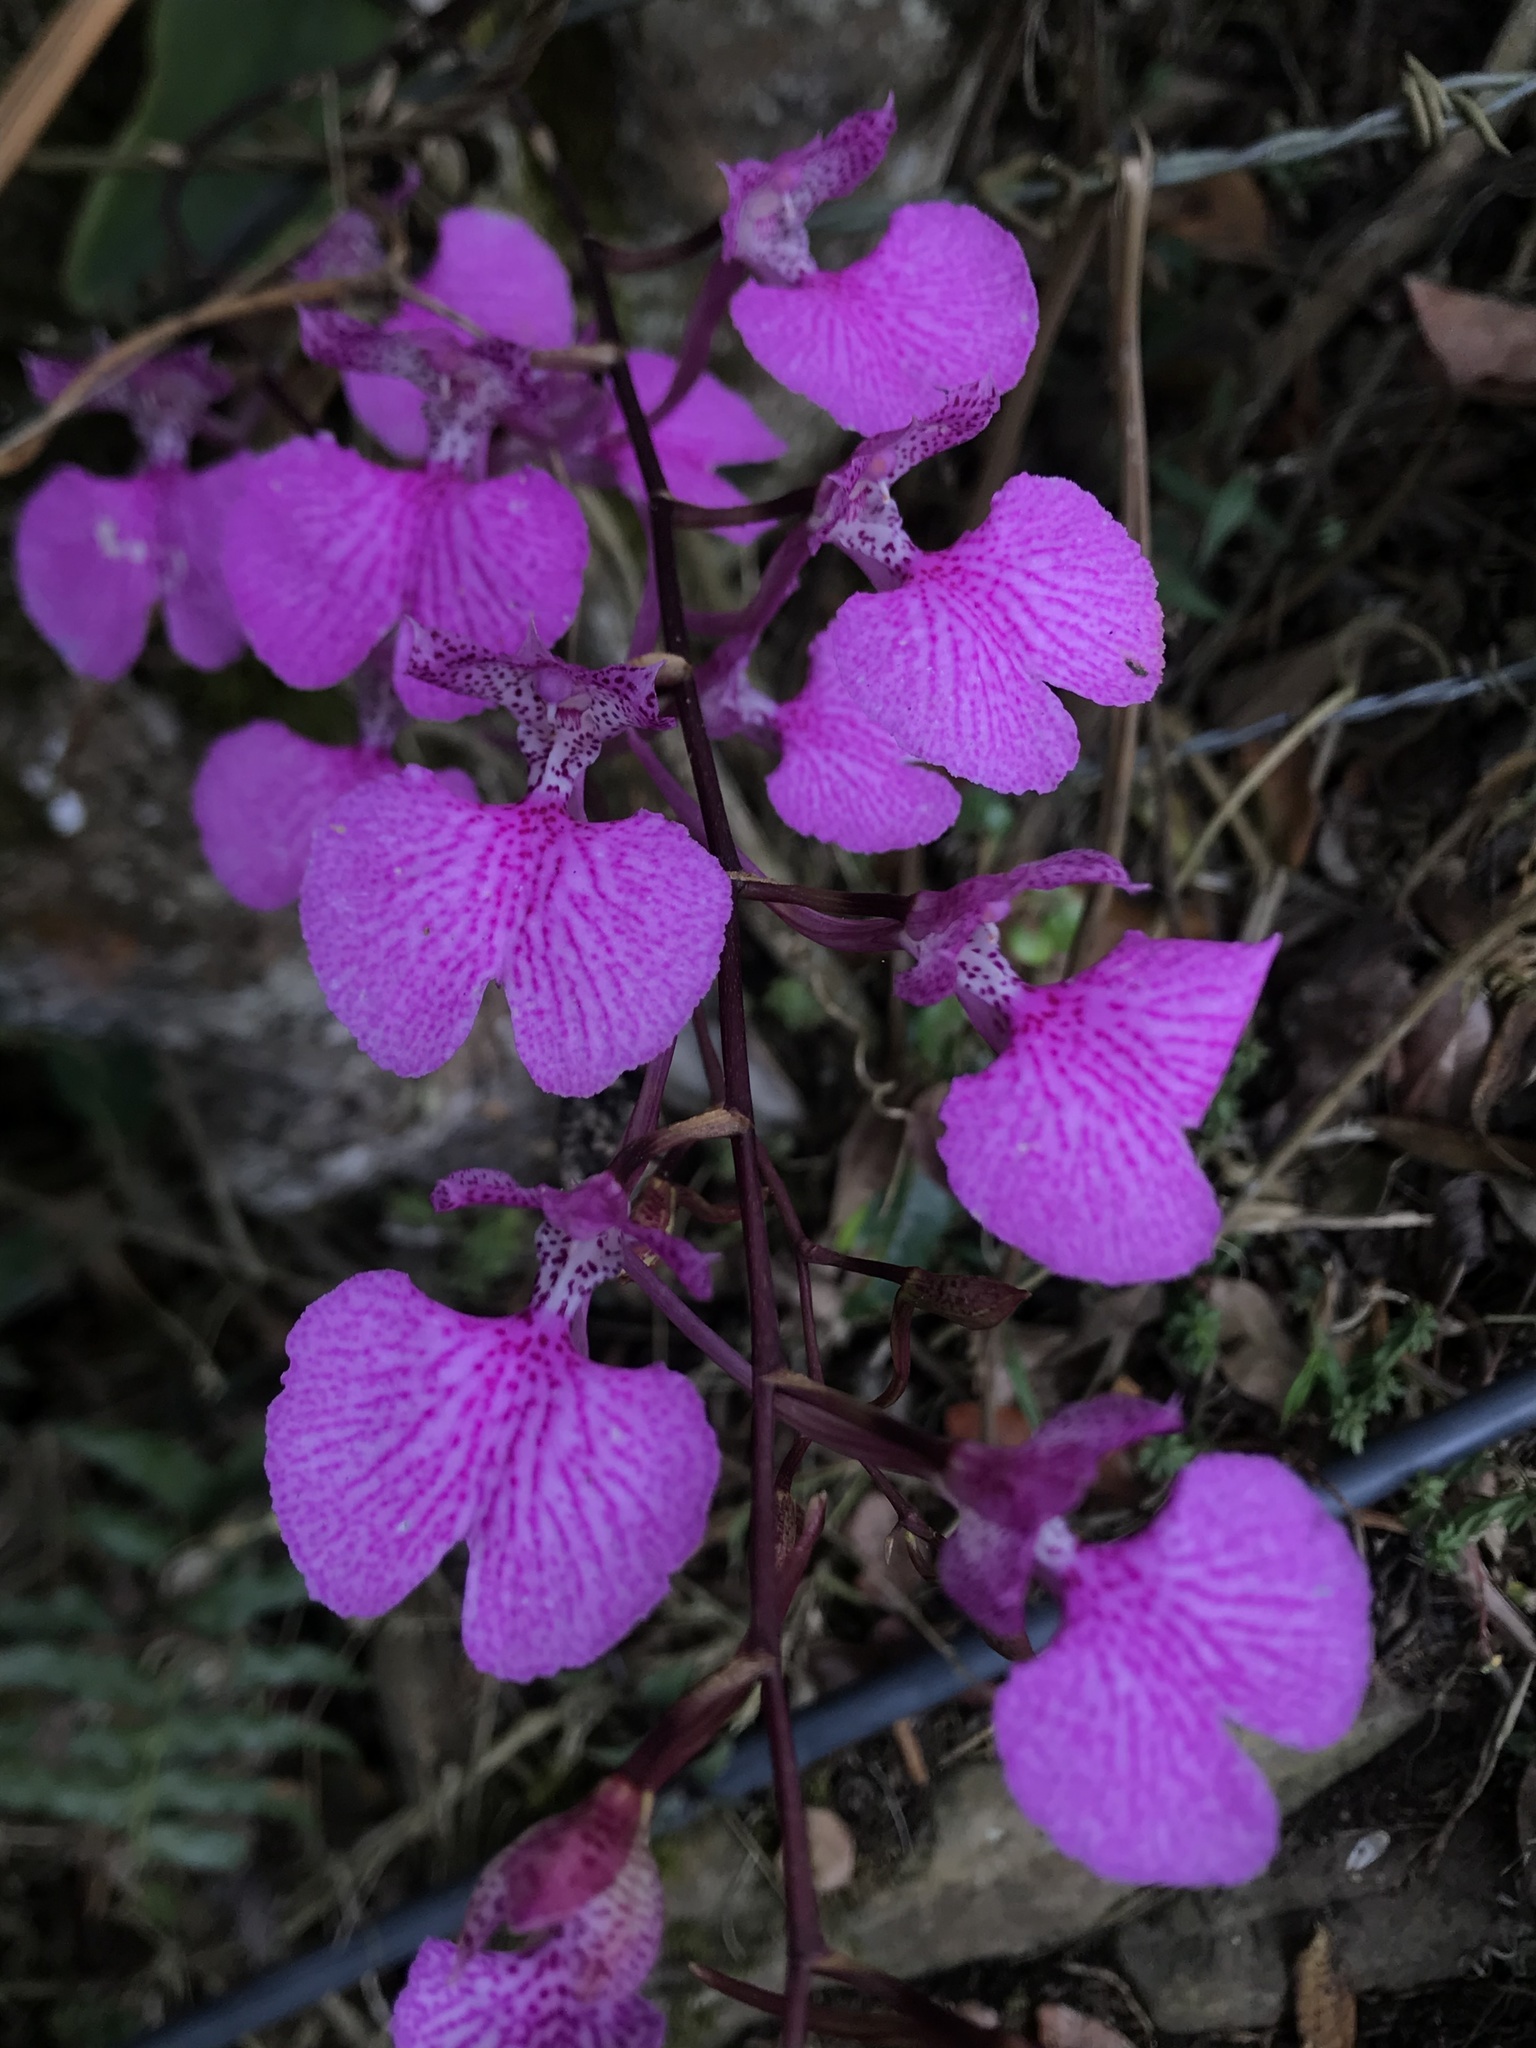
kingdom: Plantae
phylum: Tracheophyta
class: Liliopsida
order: Asparagales
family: Orchidaceae
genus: Comparettia
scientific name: Comparettia macroplectron
